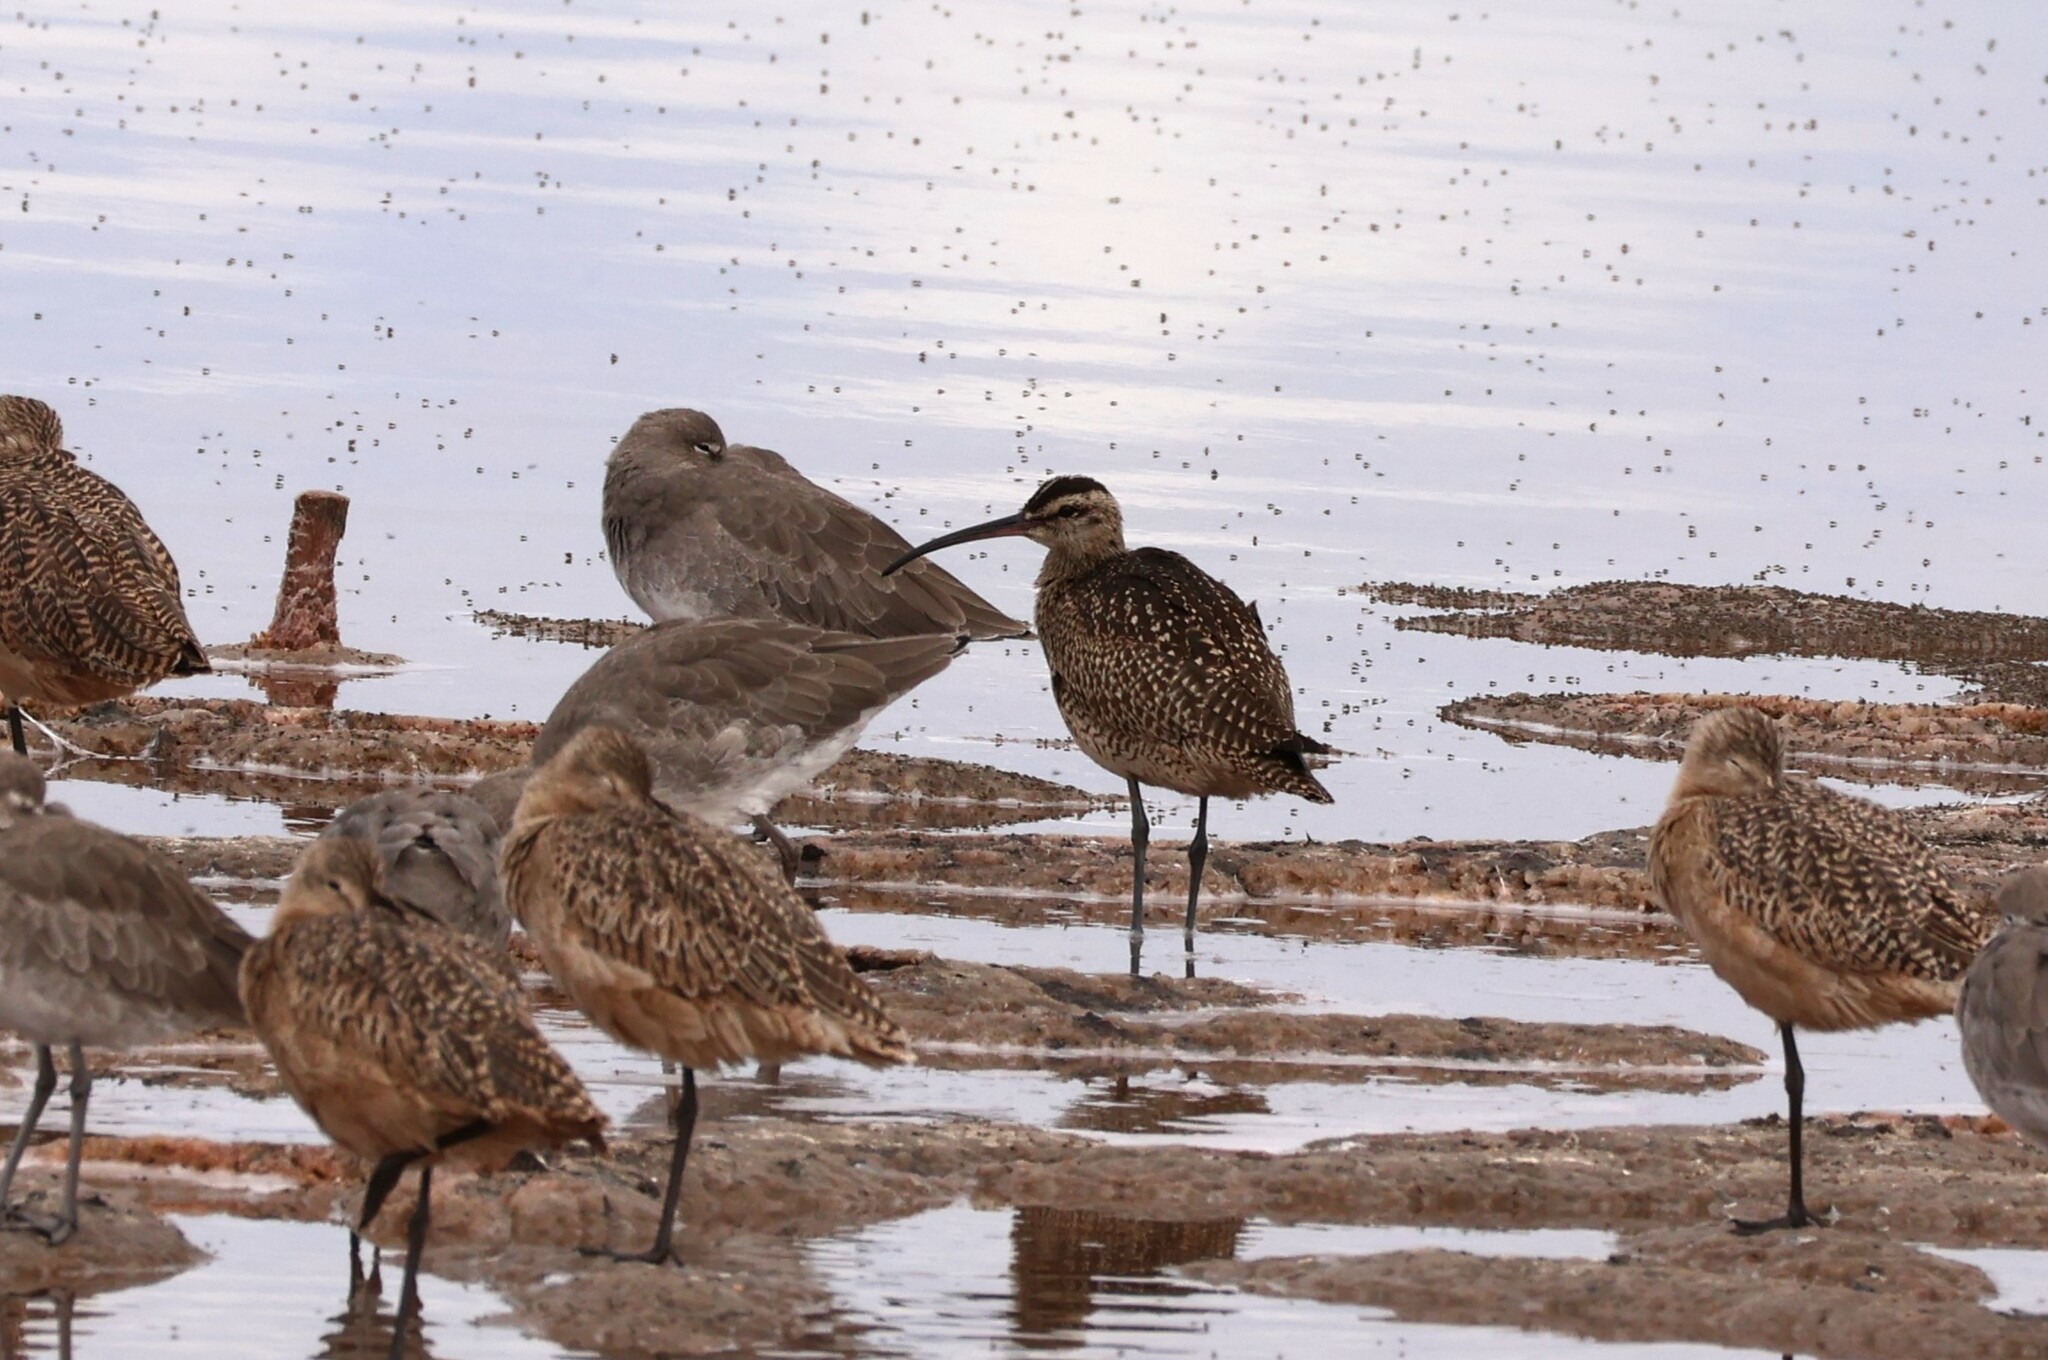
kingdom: Animalia
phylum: Chordata
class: Aves
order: Charadriiformes
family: Scolopacidae
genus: Numenius
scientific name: Numenius phaeopus
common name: Whimbrel
